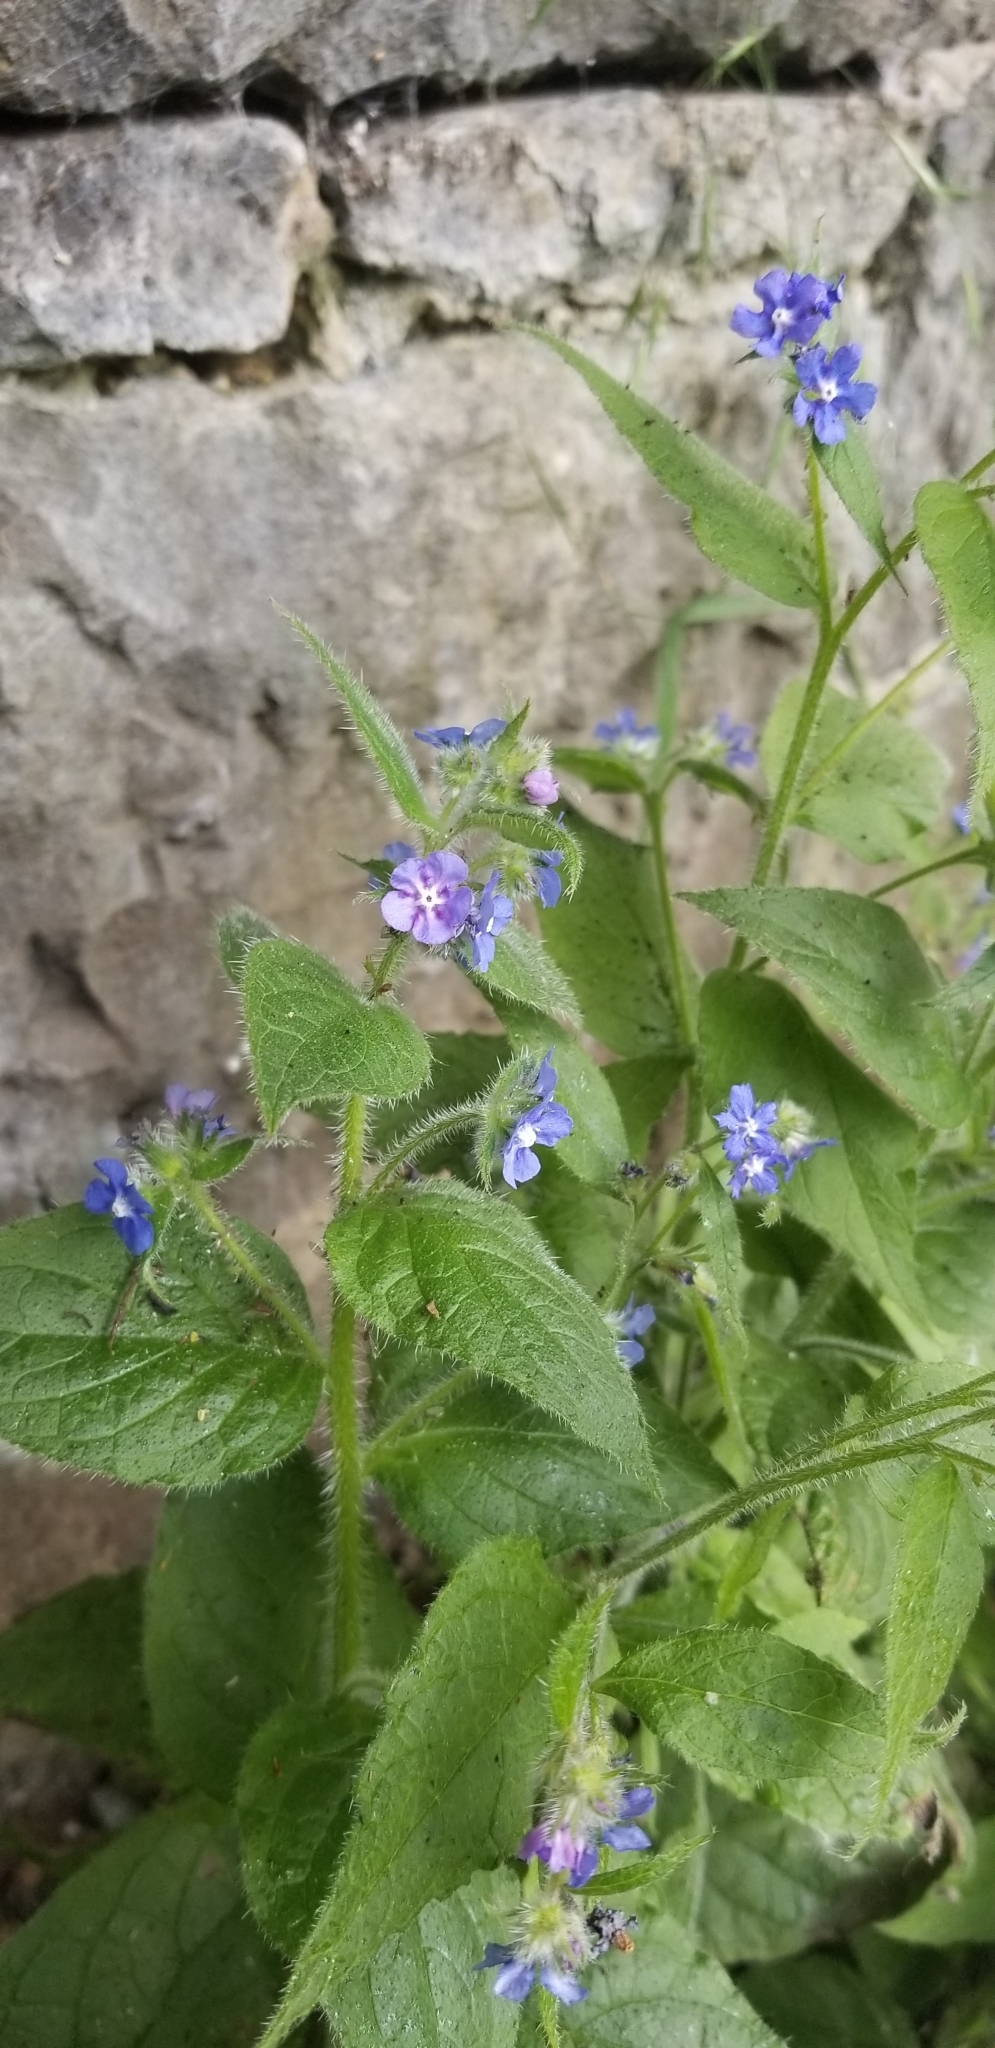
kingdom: Plantae
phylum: Tracheophyta
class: Magnoliopsida
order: Boraginales
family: Boraginaceae
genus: Pentaglottis
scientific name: Pentaglottis sempervirens
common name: Green alkanet
